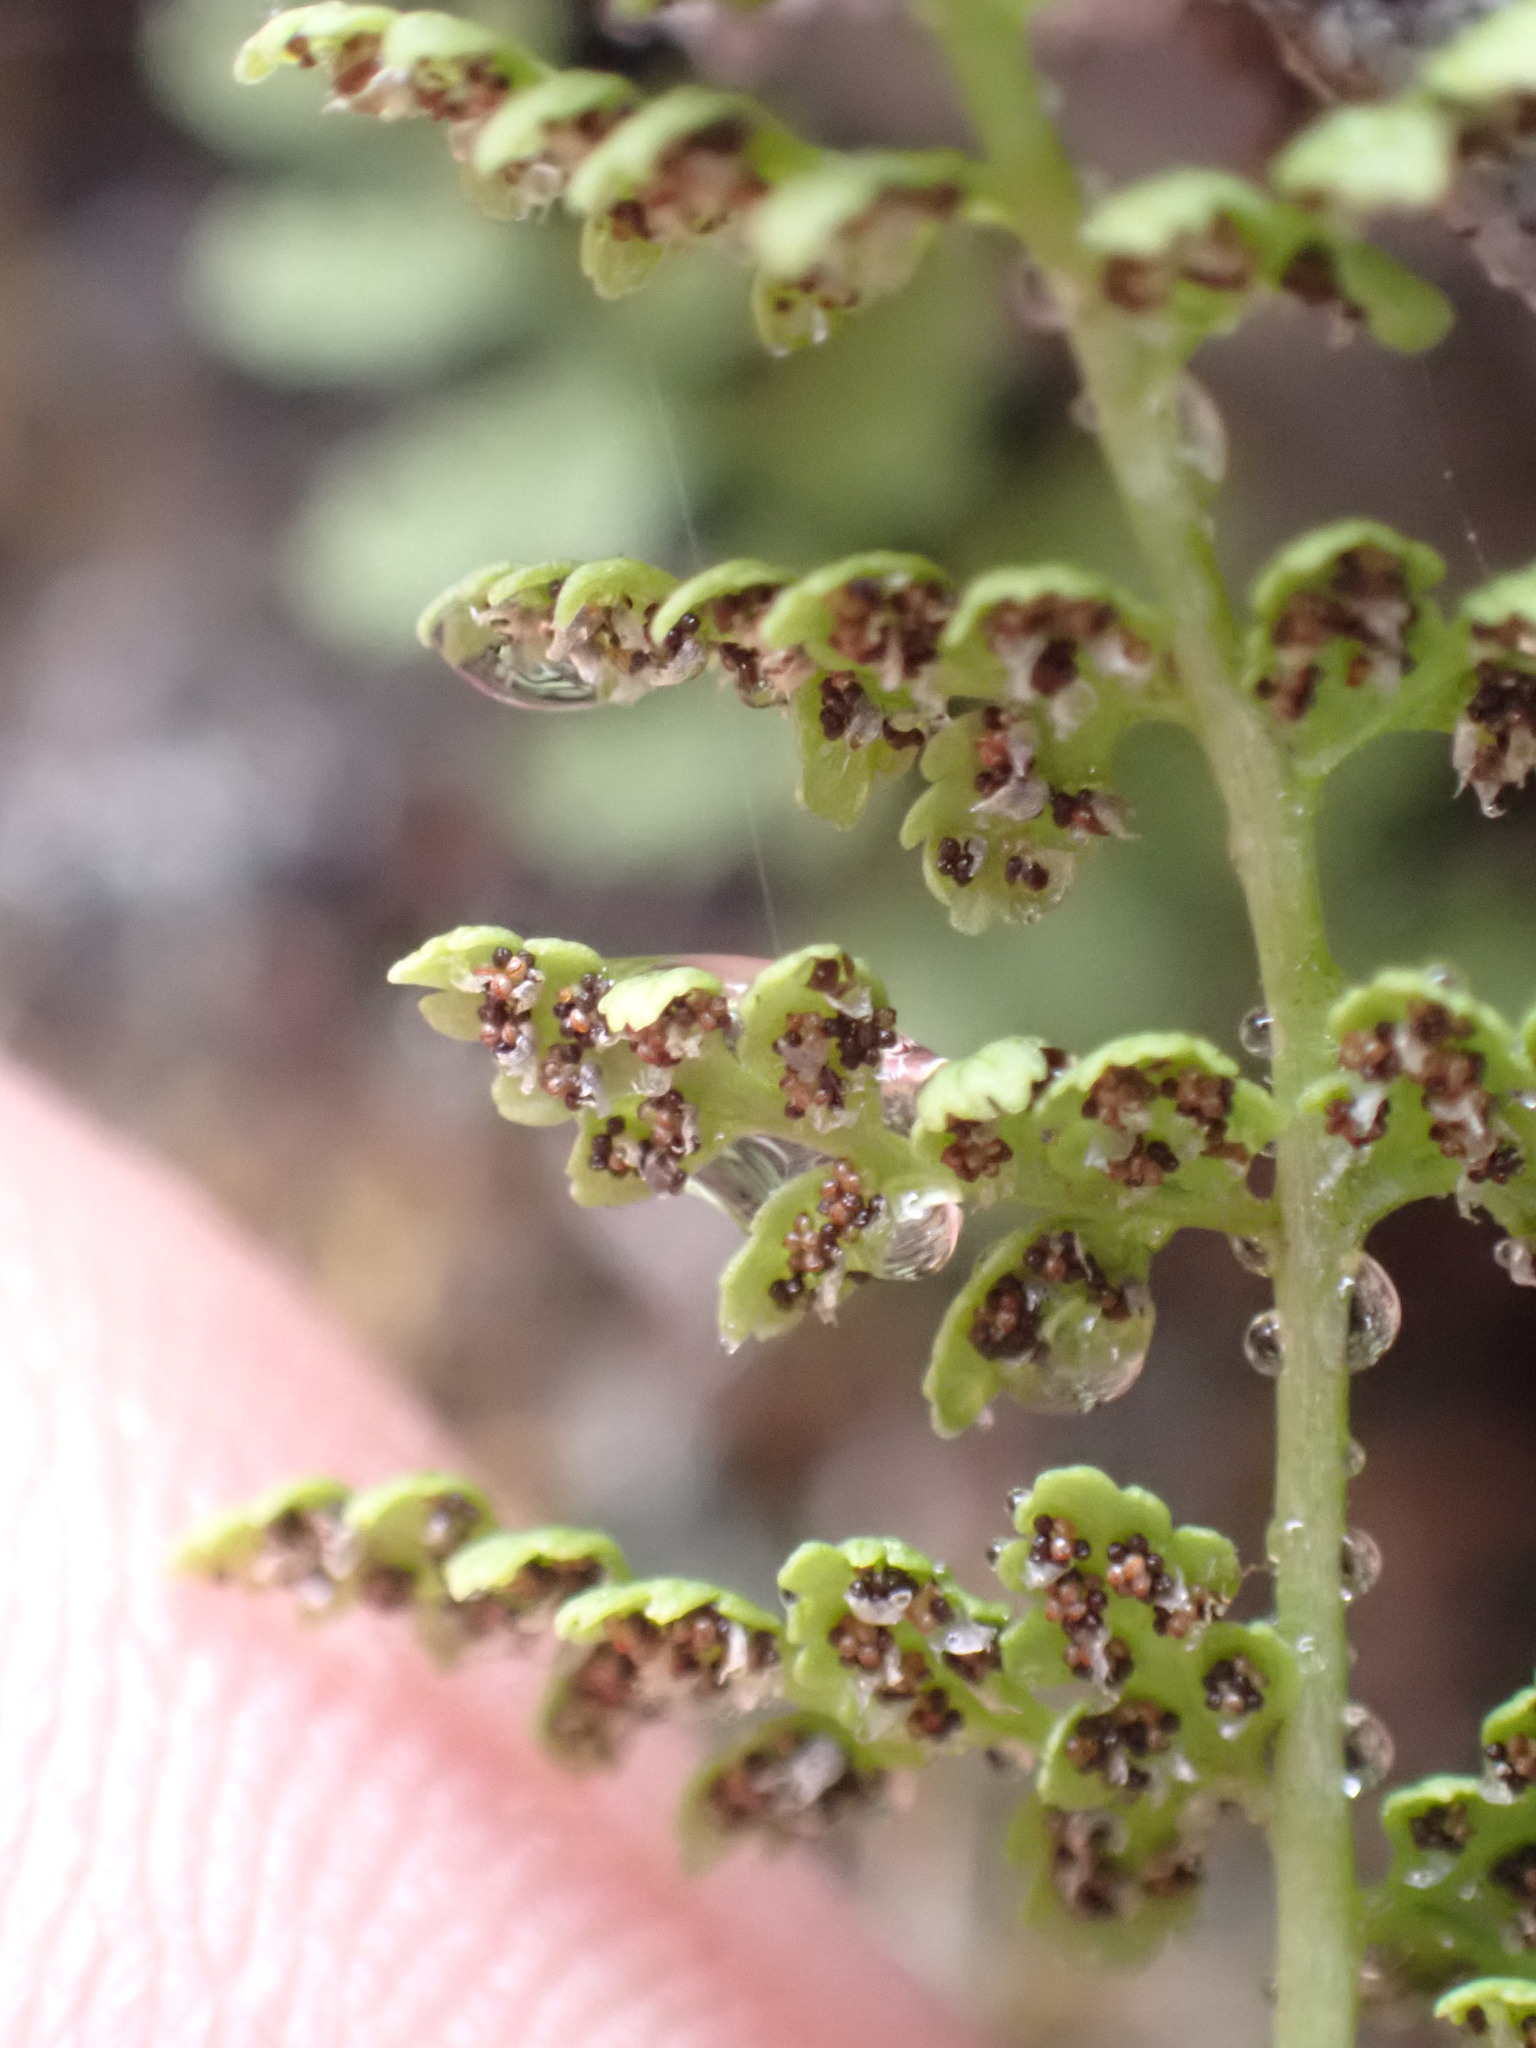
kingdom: Plantae
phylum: Tracheophyta
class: Polypodiopsida
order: Polypodiales
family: Cystopteridaceae
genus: Cystopteris
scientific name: Cystopteris fragilis
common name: Brittle bladder fern
